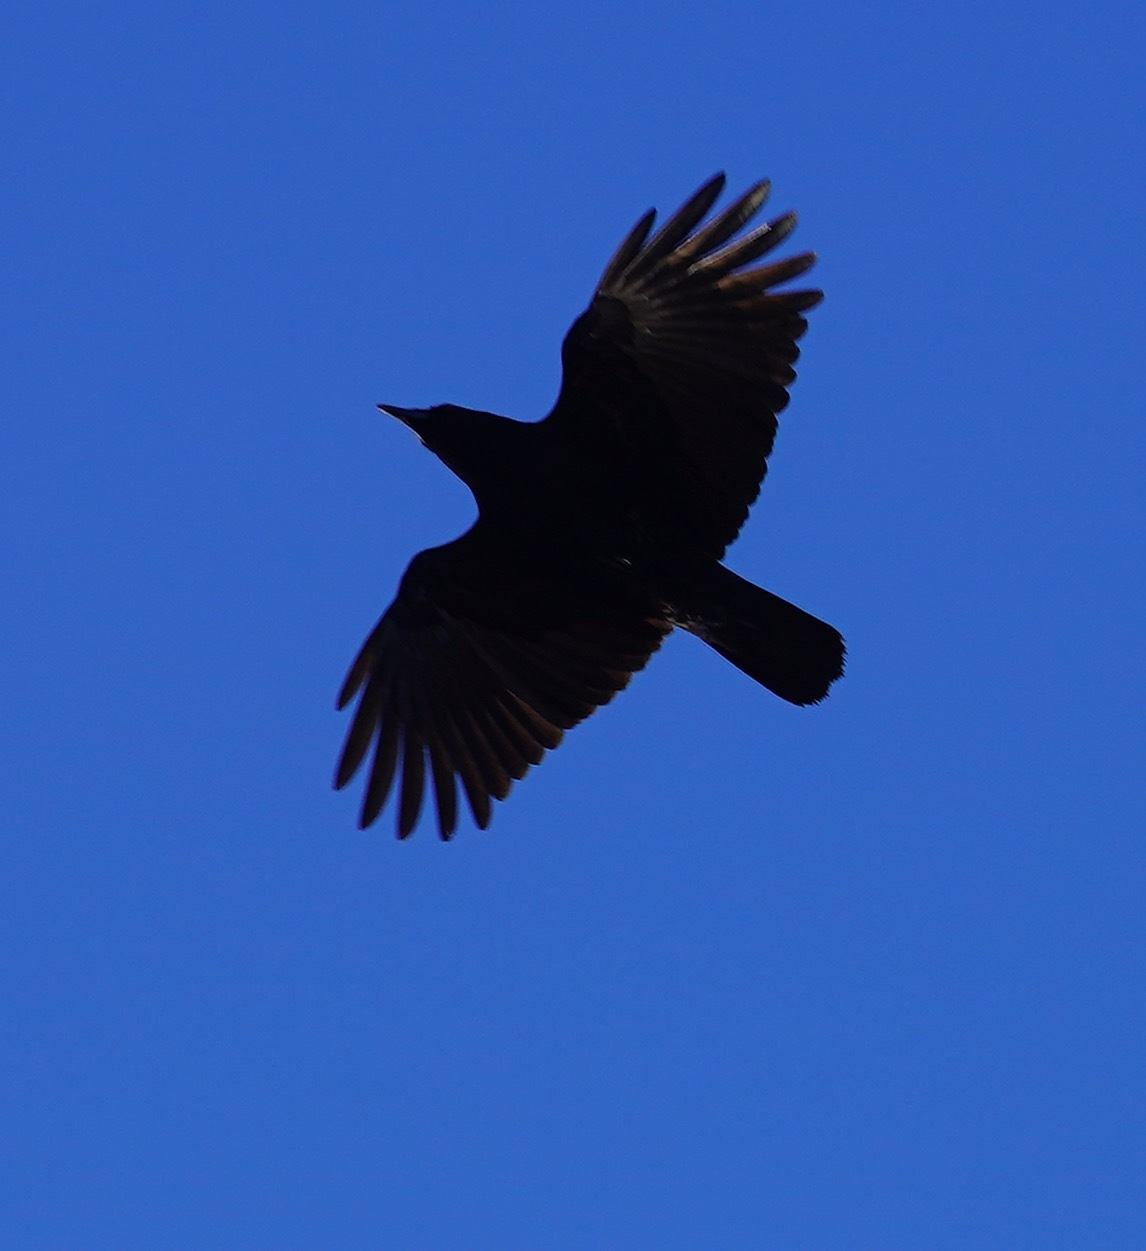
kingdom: Animalia
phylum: Chordata
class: Aves
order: Passeriformes
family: Corvidae
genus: Corvus
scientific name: Corvus brachyrhynchos
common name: American crow
